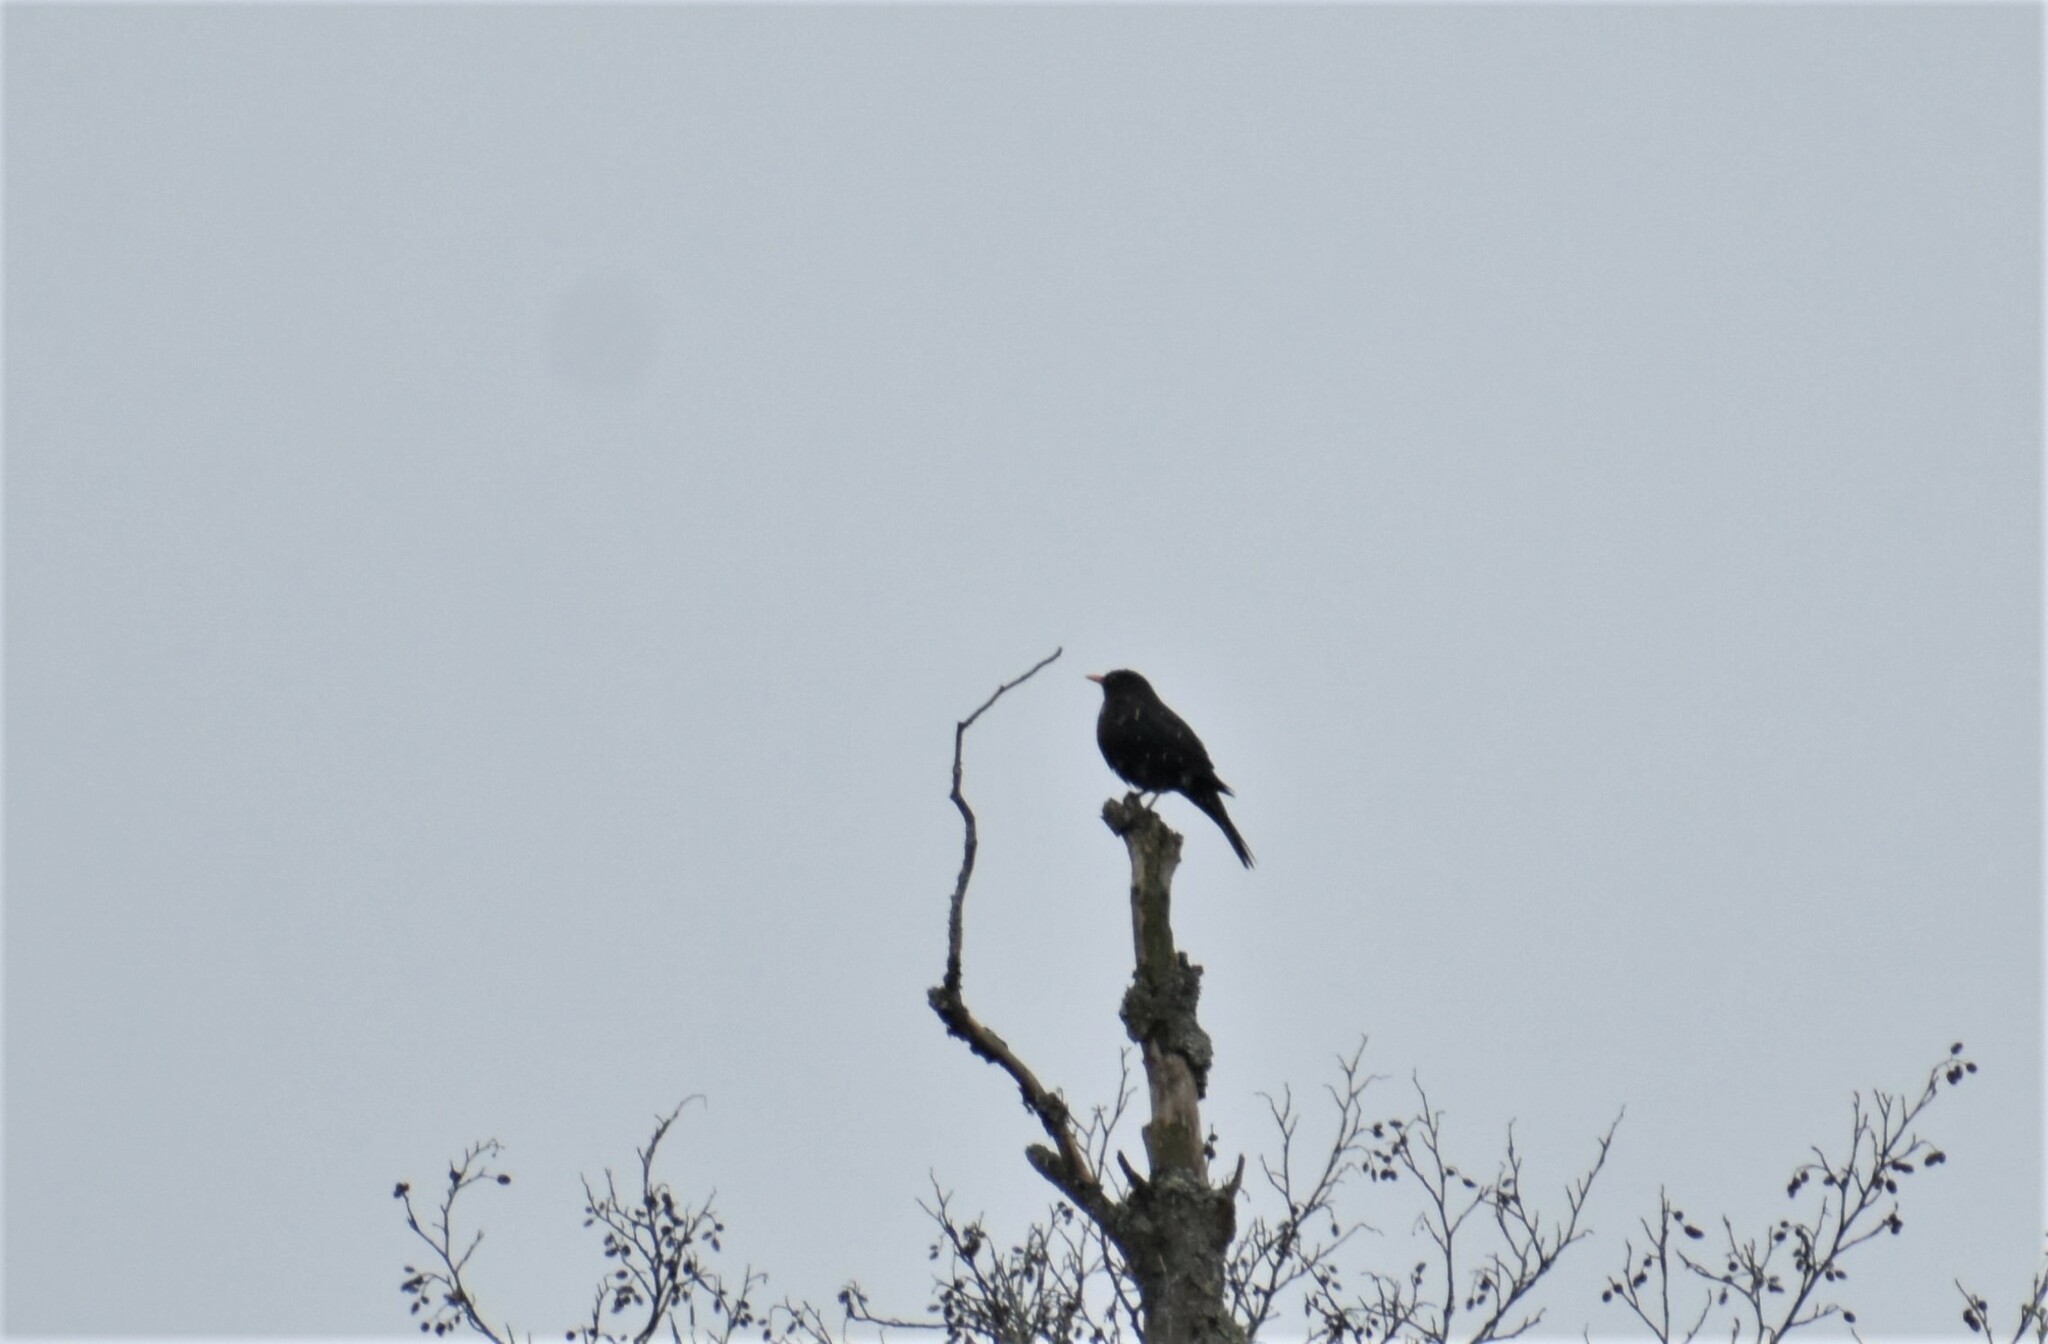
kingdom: Animalia
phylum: Chordata
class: Aves
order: Passeriformes
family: Turdidae
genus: Turdus
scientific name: Turdus merula
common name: Common blackbird
